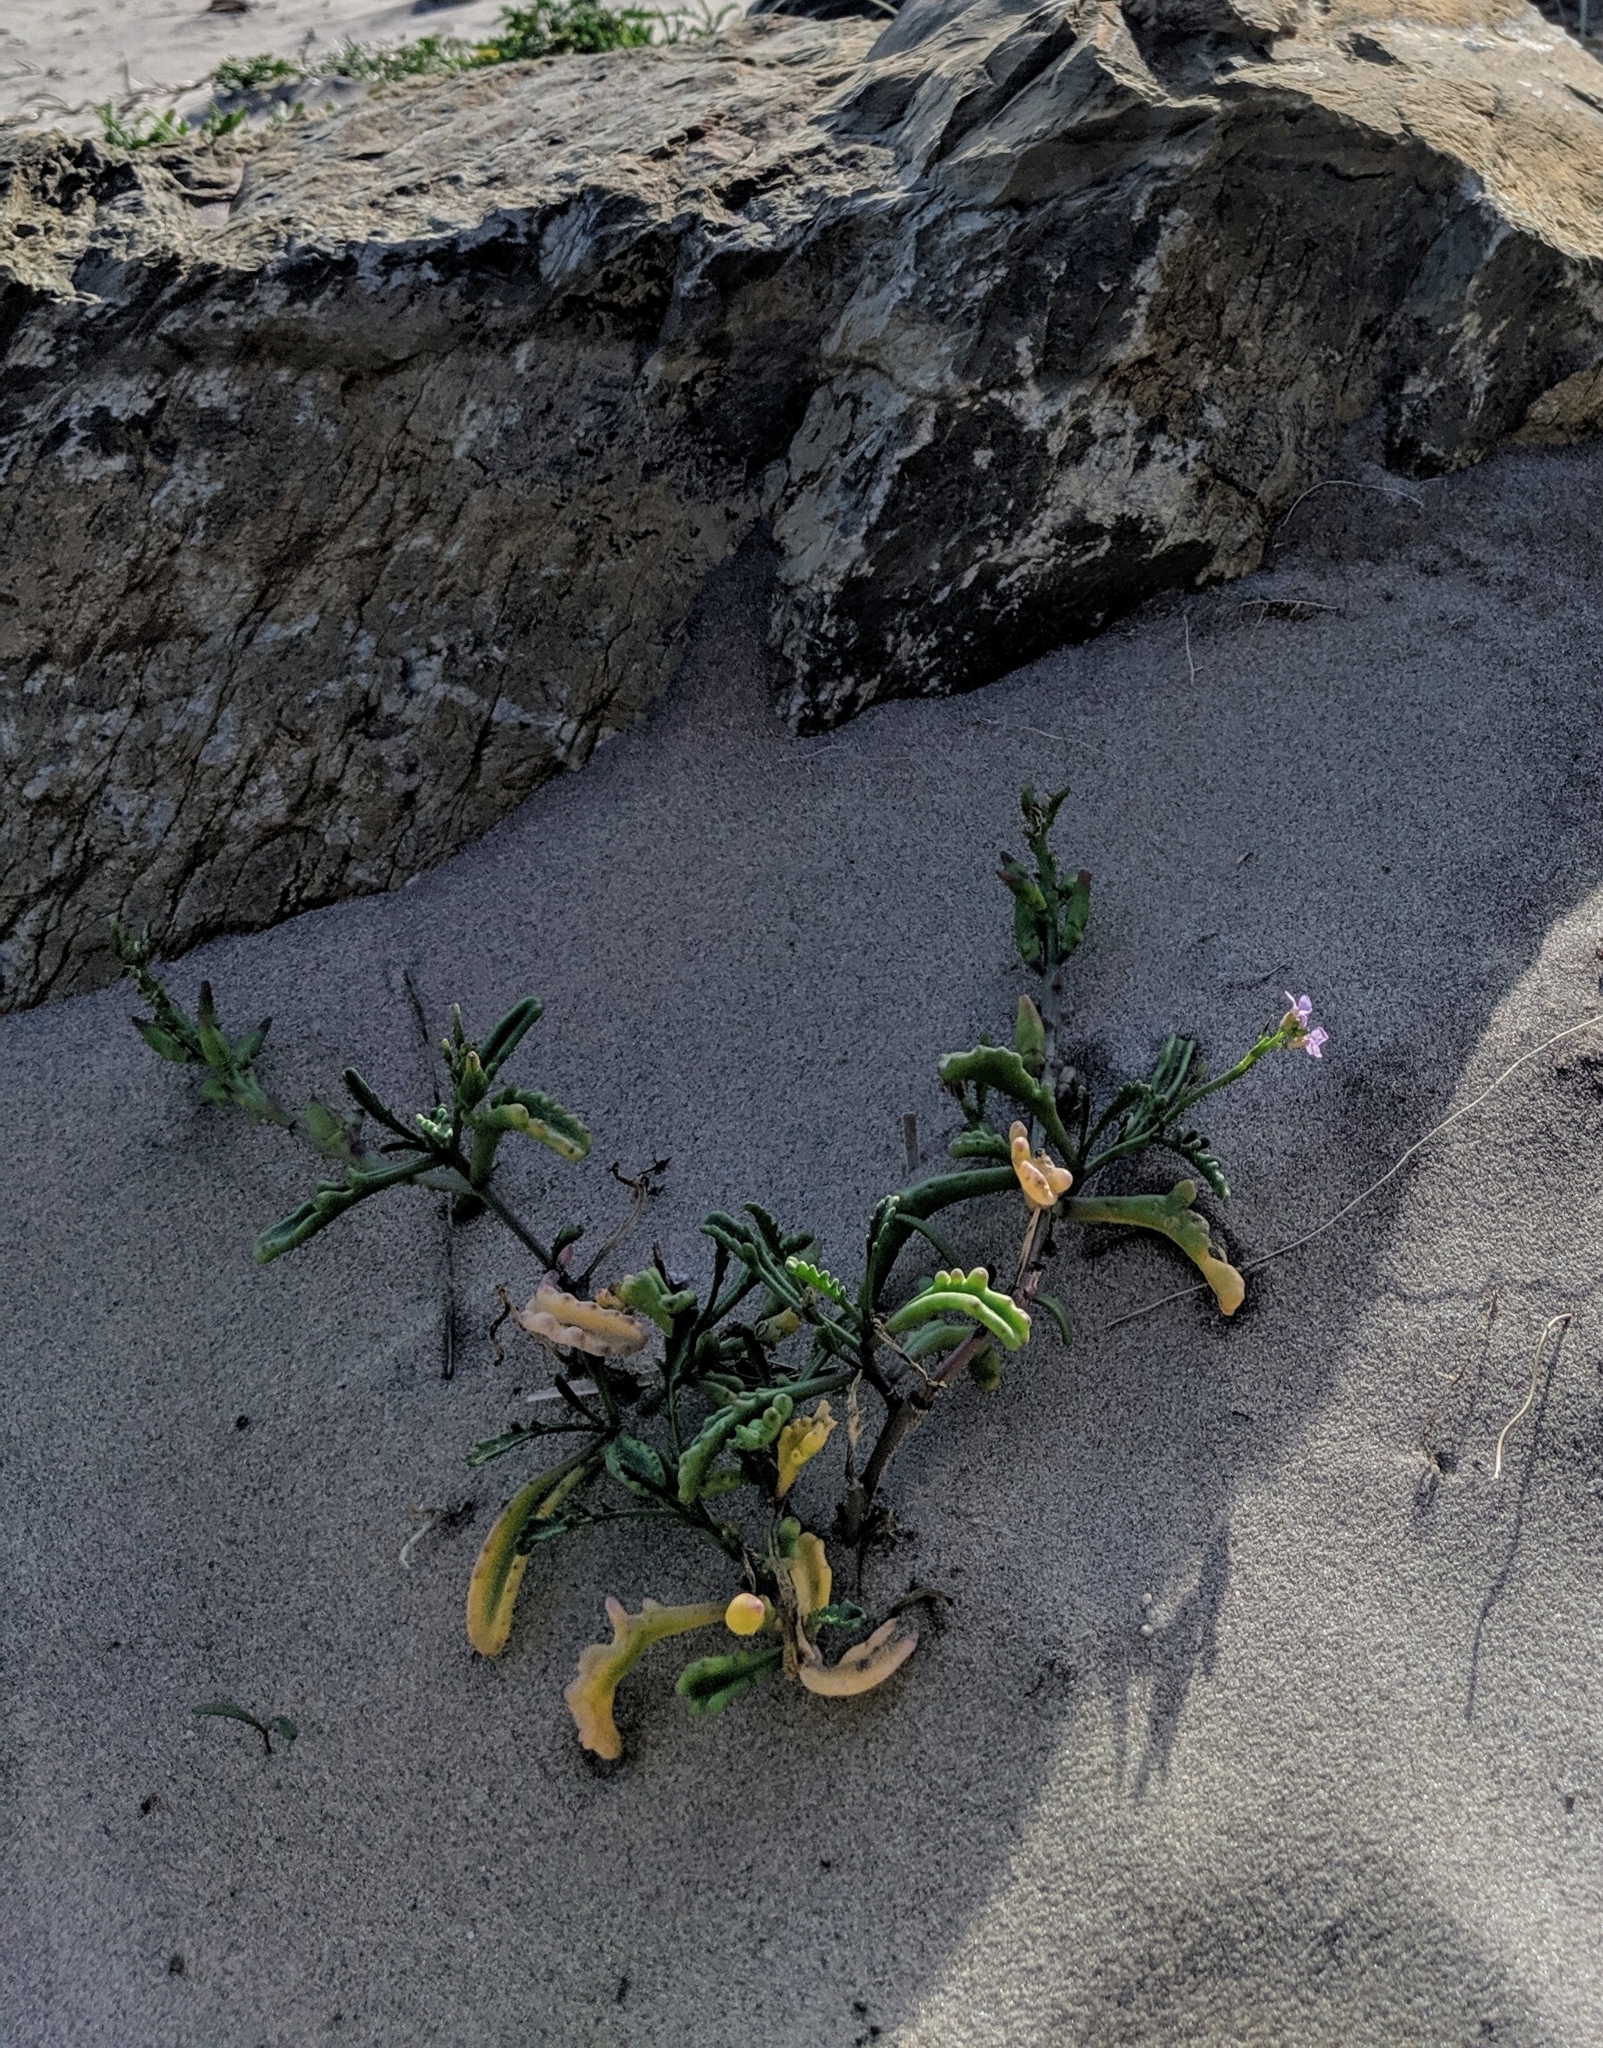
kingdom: Plantae
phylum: Tracheophyta
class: Magnoliopsida
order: Brassicales
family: Brassicaceae
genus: Cakile
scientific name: Cakile maritima
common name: Sea rocket
